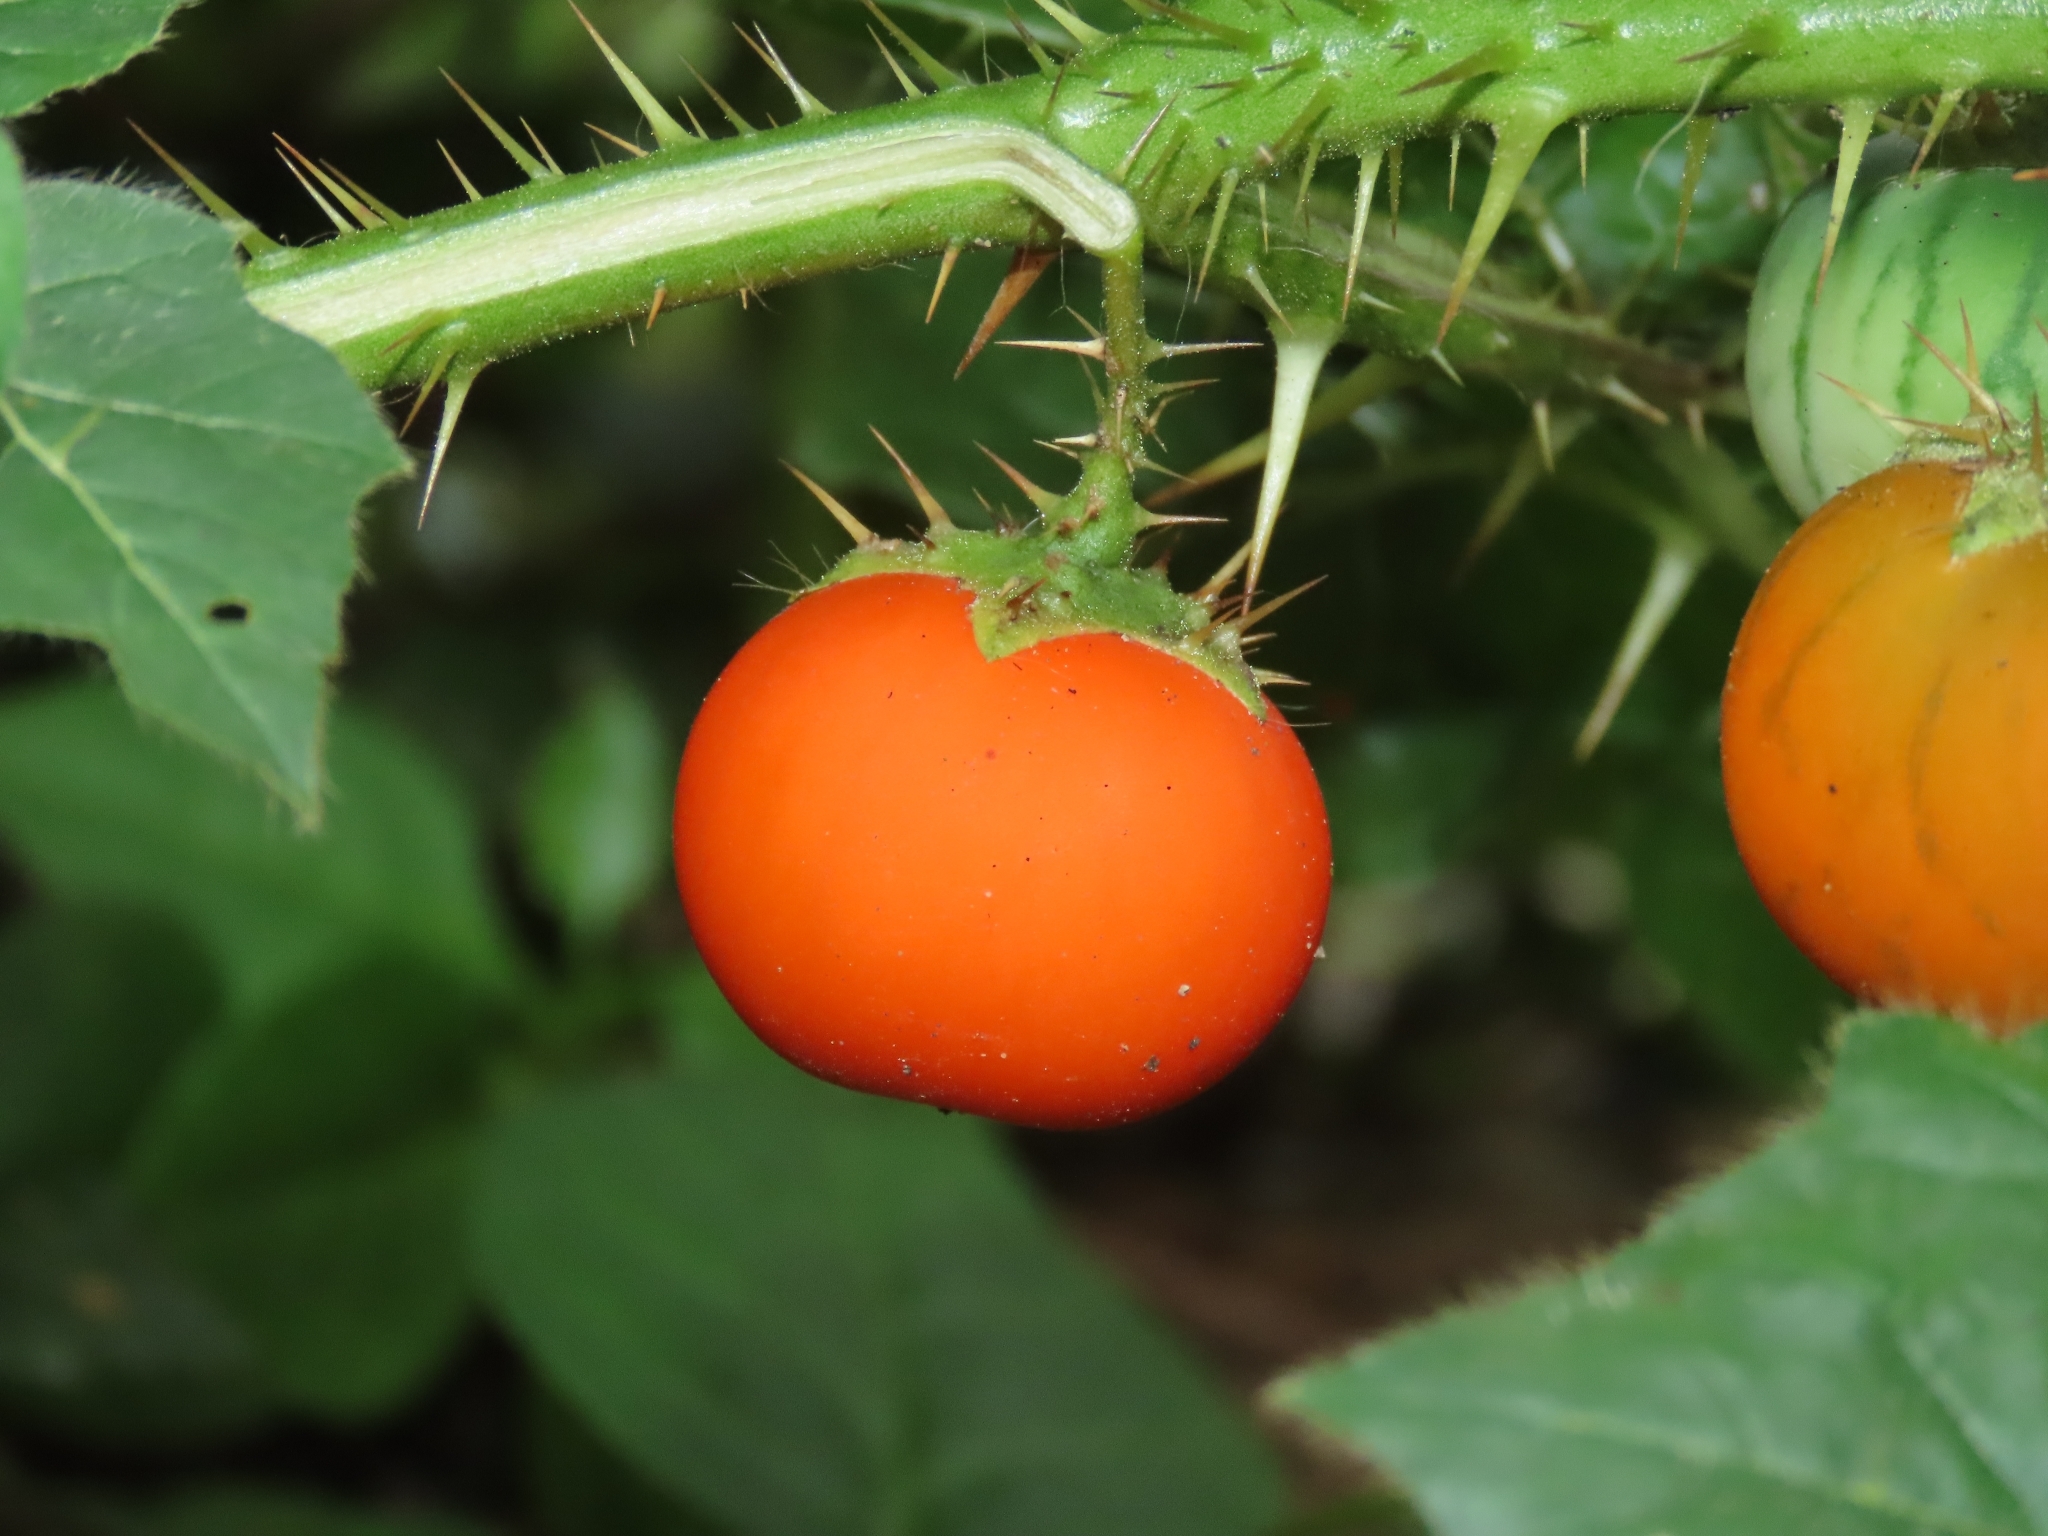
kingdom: Plantae
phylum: Tracheophyta
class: Magnoliopsida
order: Solanales
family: Solanaceae
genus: Solanum
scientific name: Solanum capsicoides
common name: Cockroach berry
